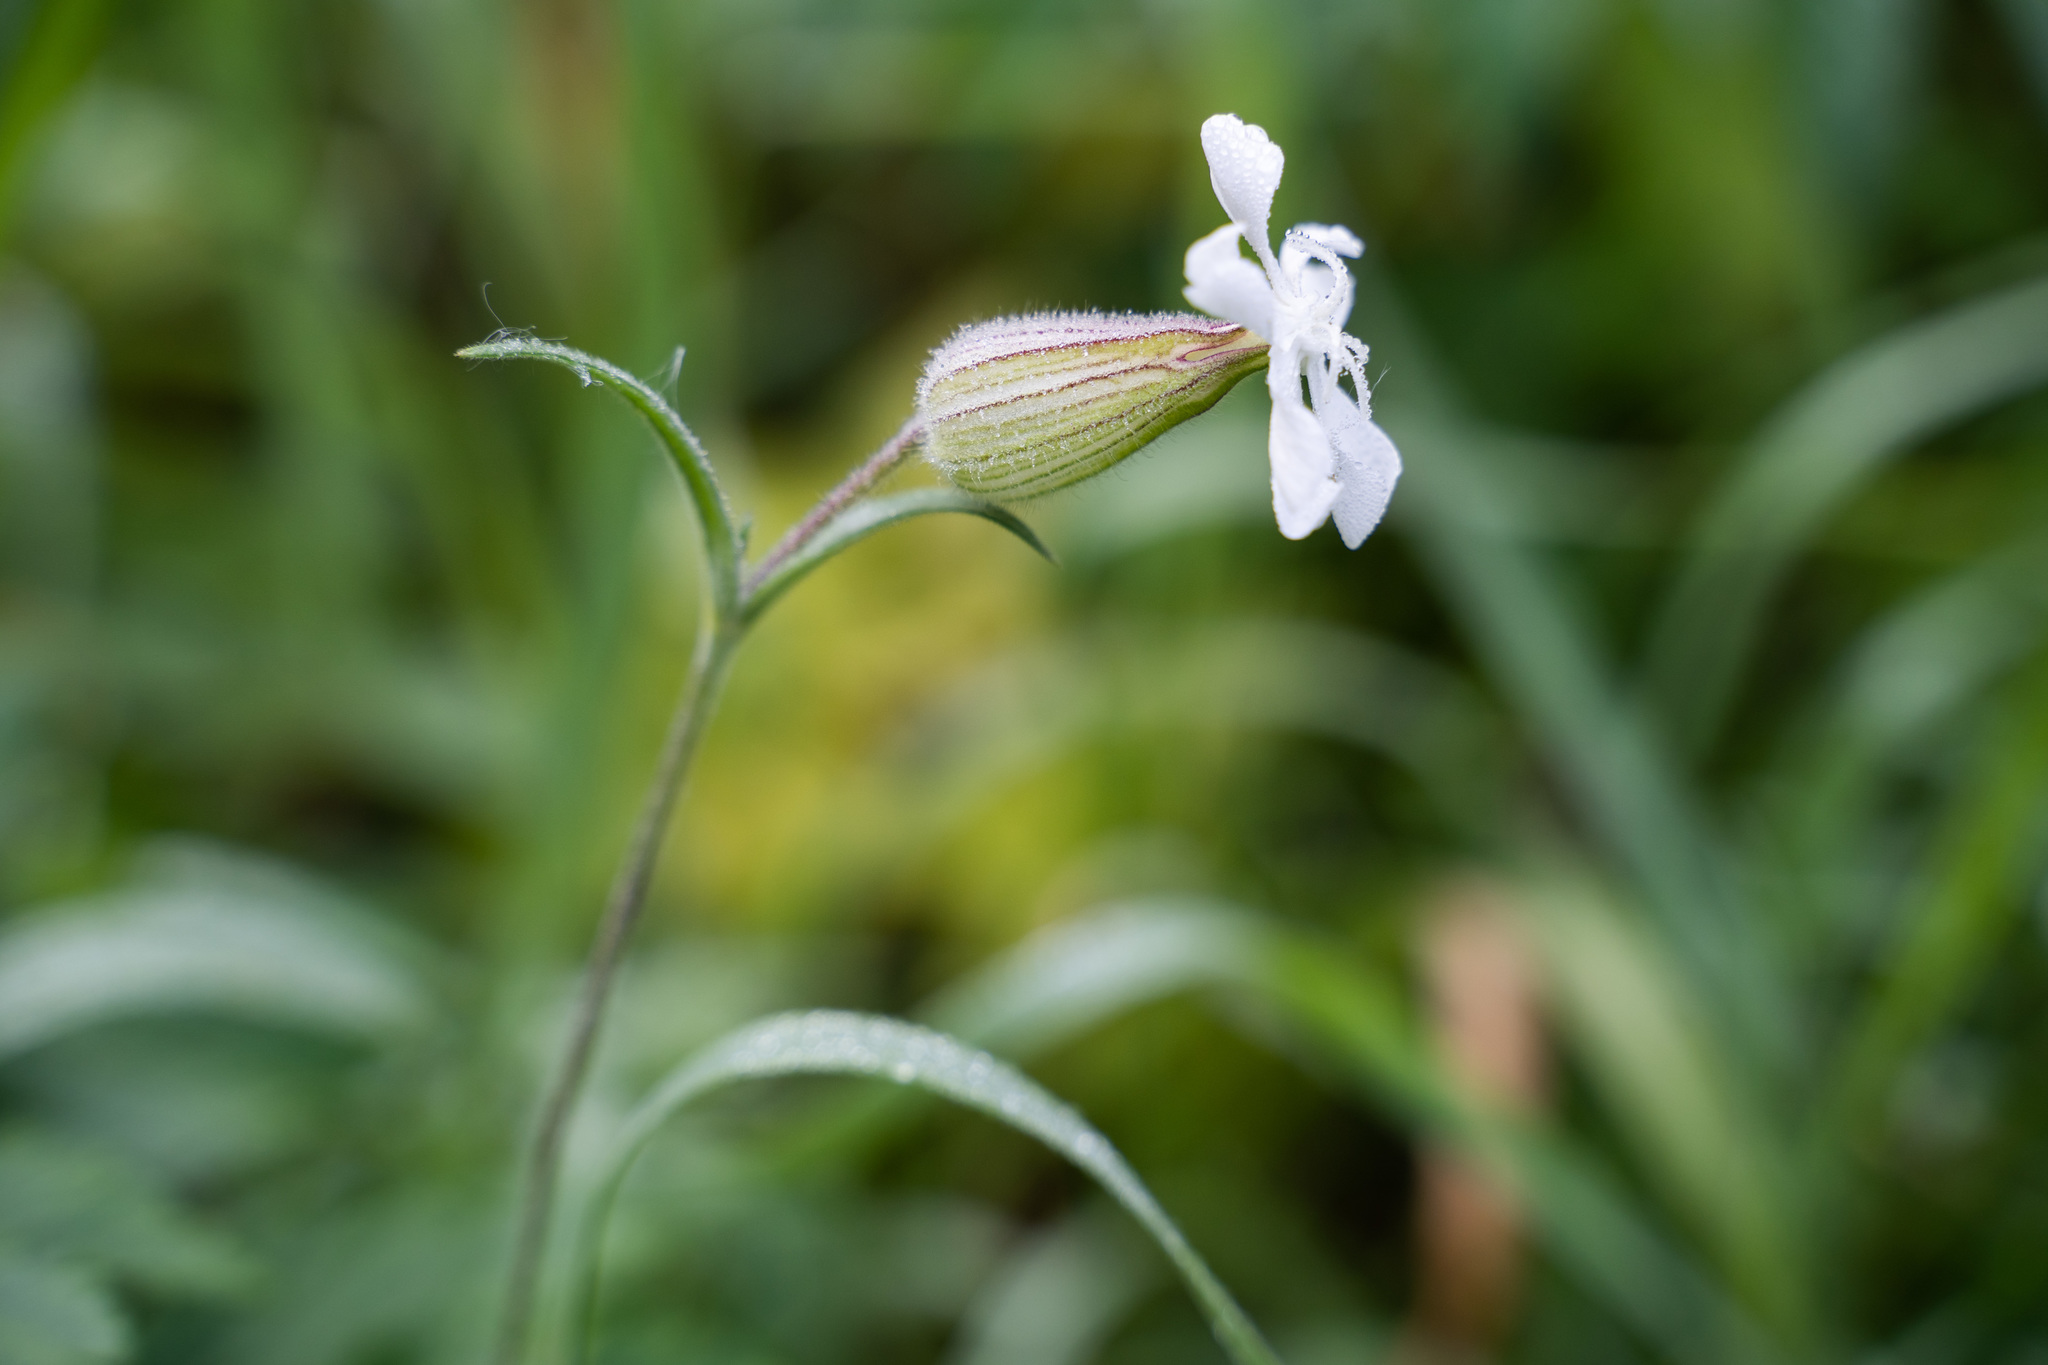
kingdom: Plantae
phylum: Tracheophyta
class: Magnoliopsida
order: Caryophyllales
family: Caryophyllaceae
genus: Silene
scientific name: Silene latifolia
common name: White campion
